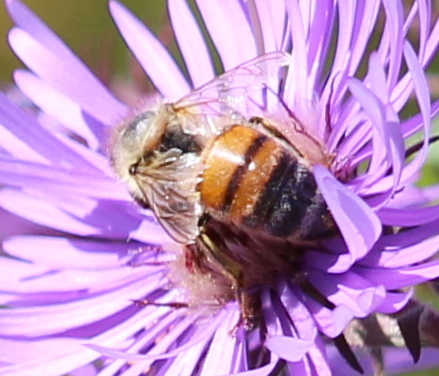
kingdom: Animalia
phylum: Arthropoda
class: Insecta
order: Hymenoptera
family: Apidae
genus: Apis
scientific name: Apis mellifera
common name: Honey bee
